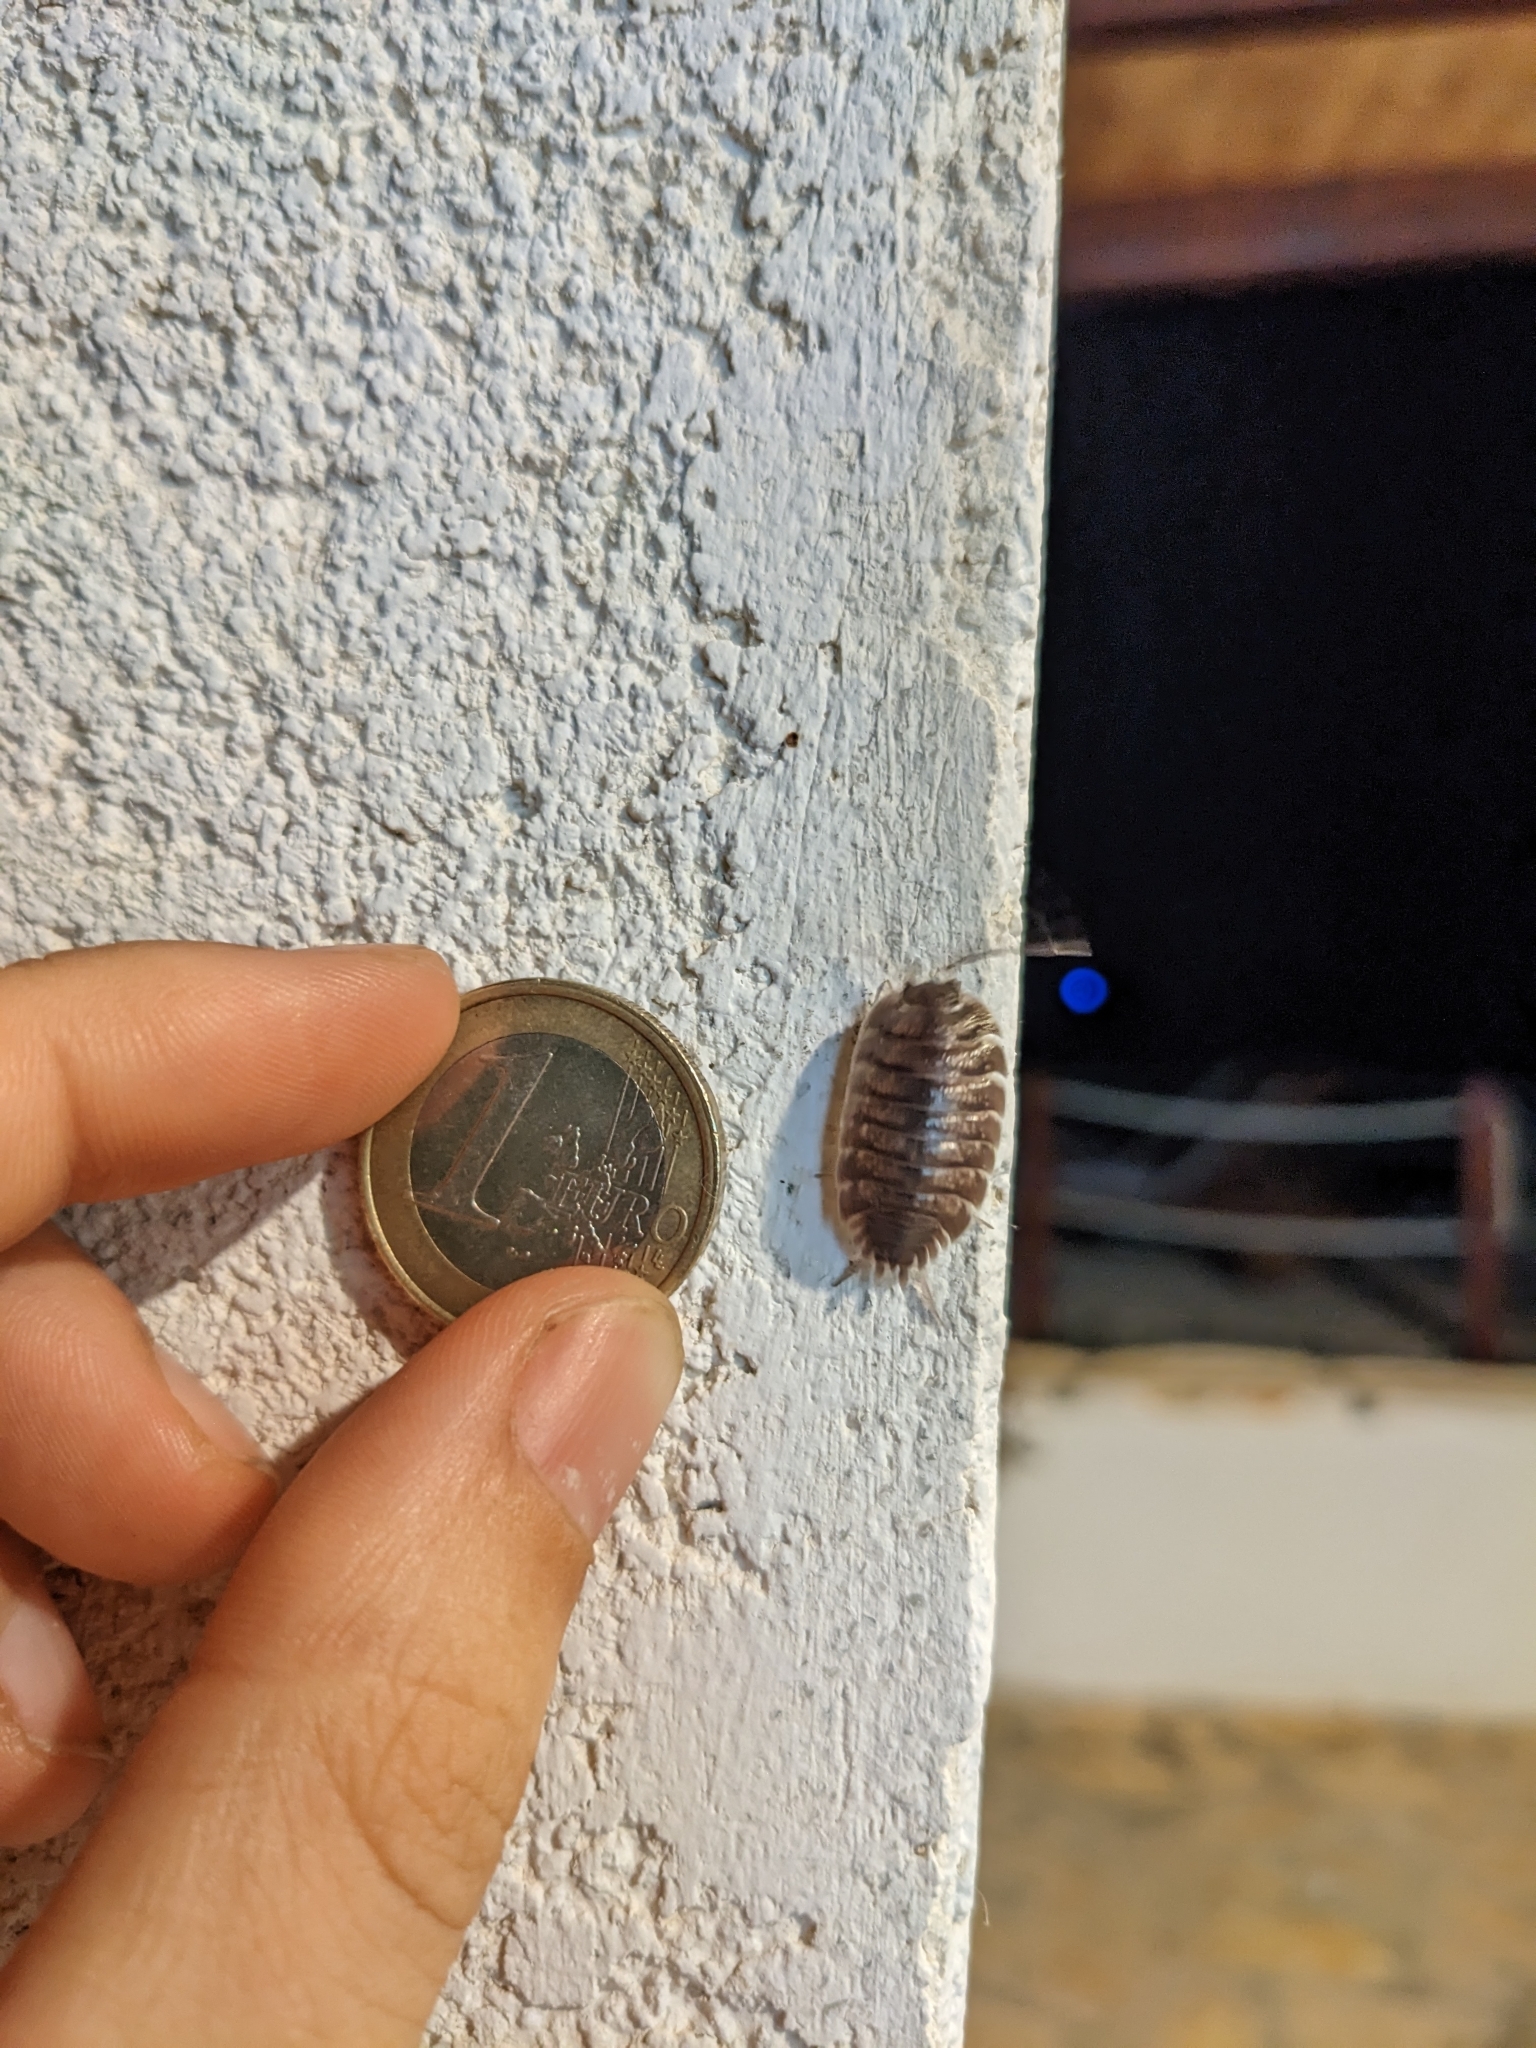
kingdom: Animalia
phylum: Arthropoda
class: Malacostraca
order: Isopoda
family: Porcellionidae
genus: Porcellio
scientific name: Porcellio obsoletus
